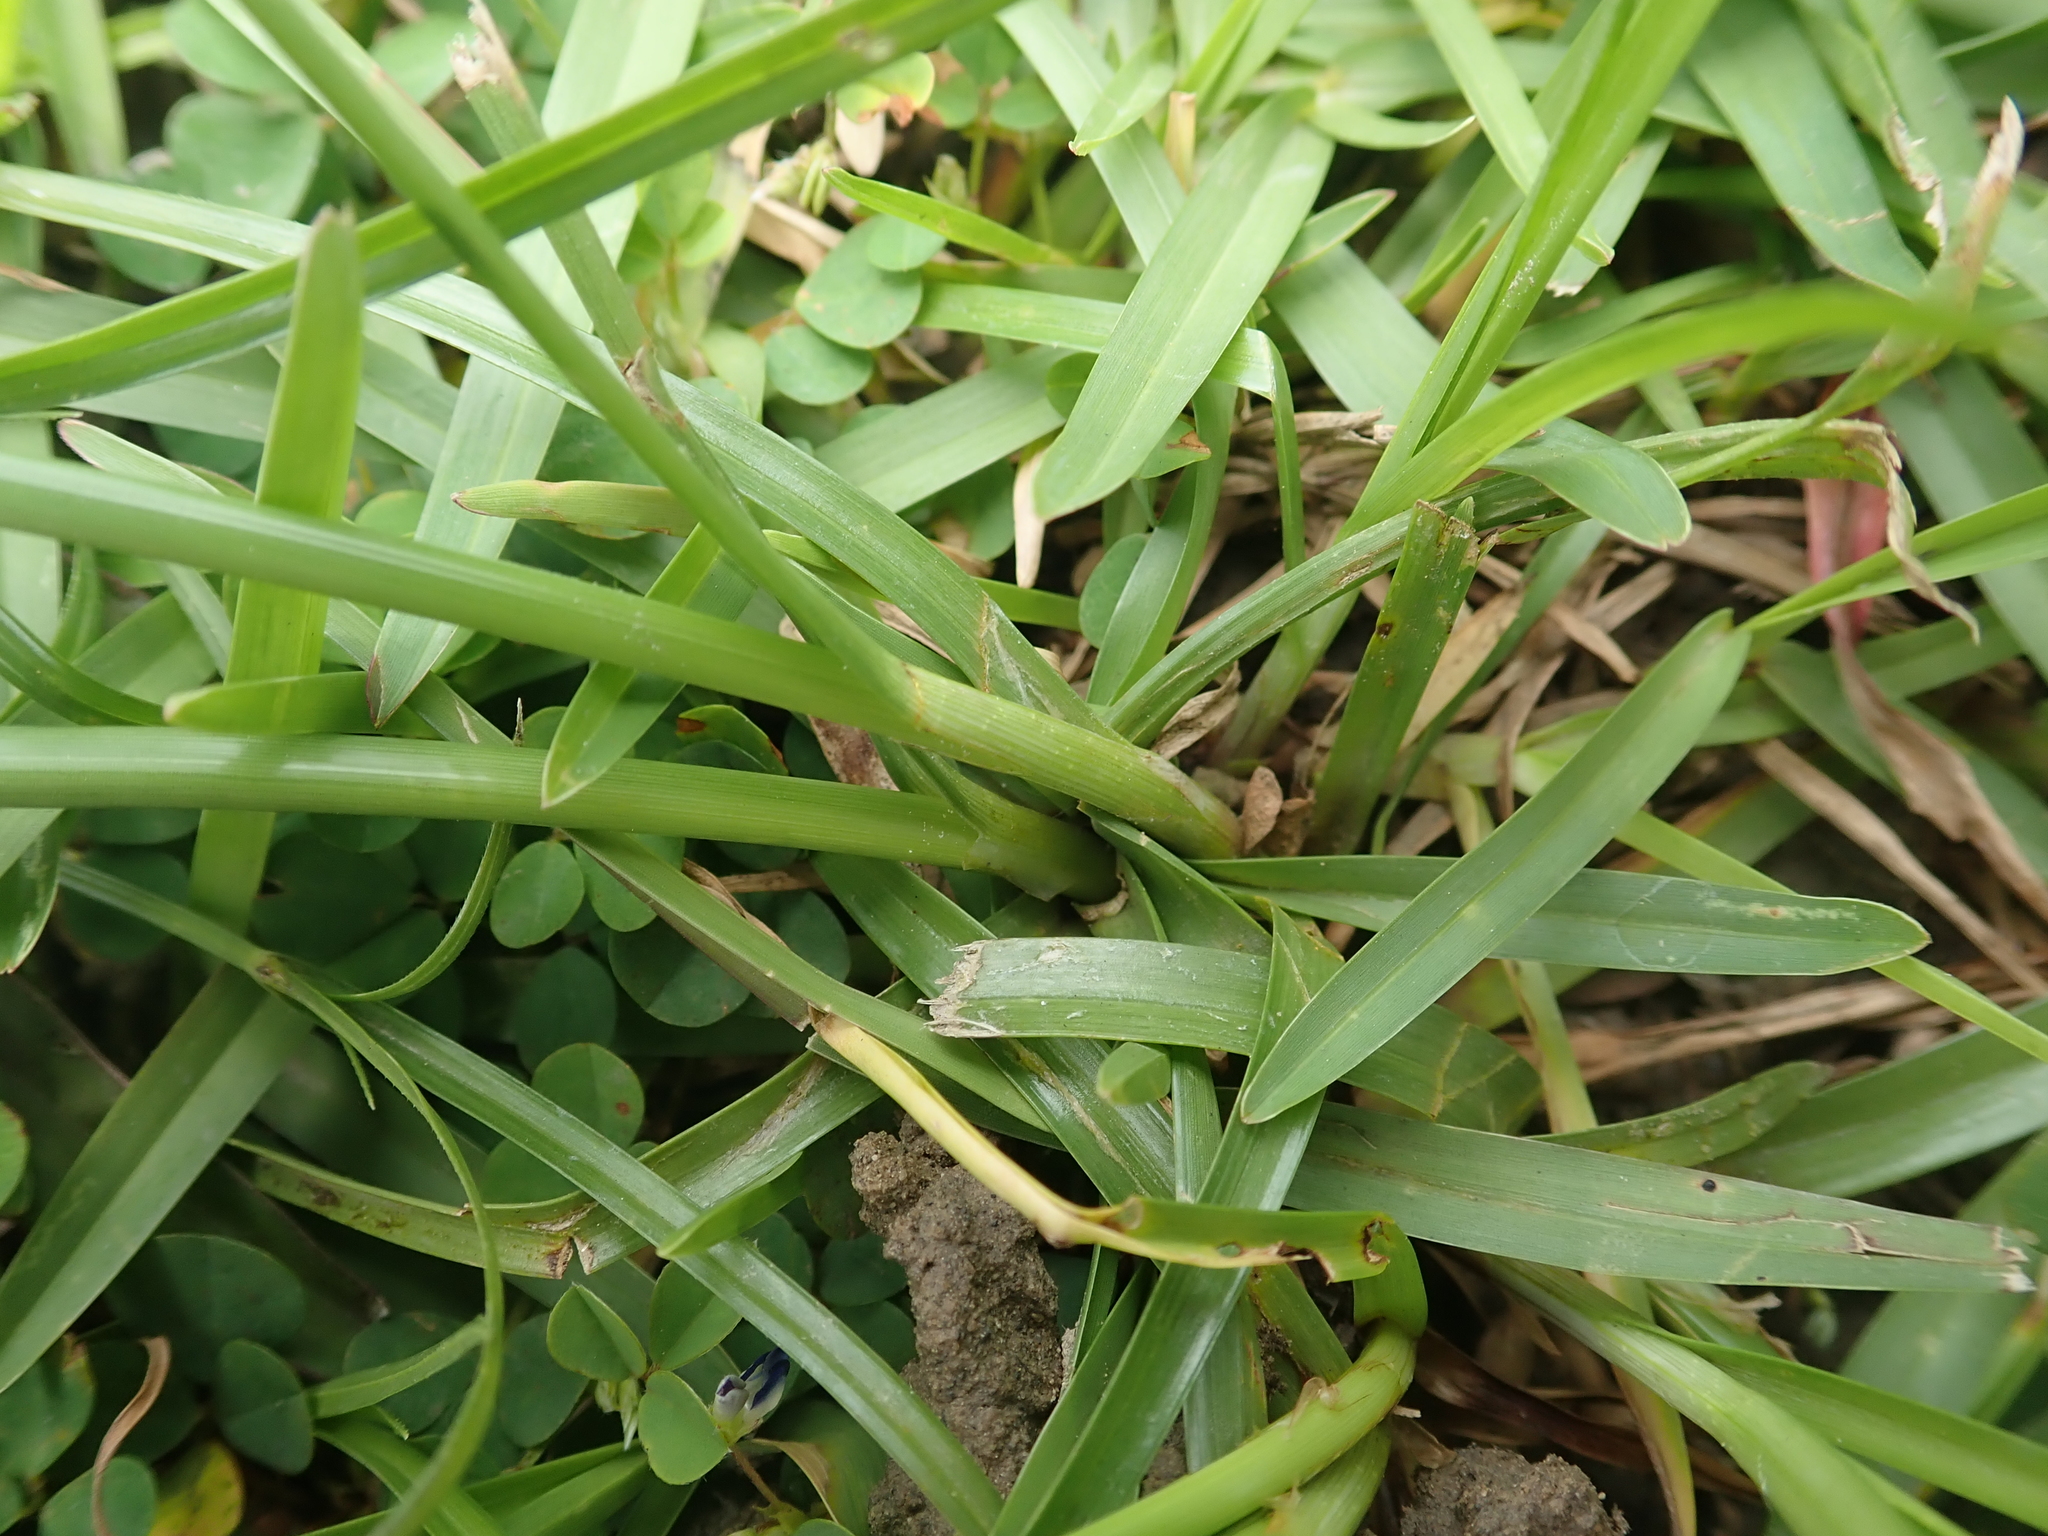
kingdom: Plantae
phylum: Tracheophyta
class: Liliopsida
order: Poales
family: Cyperaceae
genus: Cyperus
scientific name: Cyperus polystachyos
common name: Bunchy flat sedge
